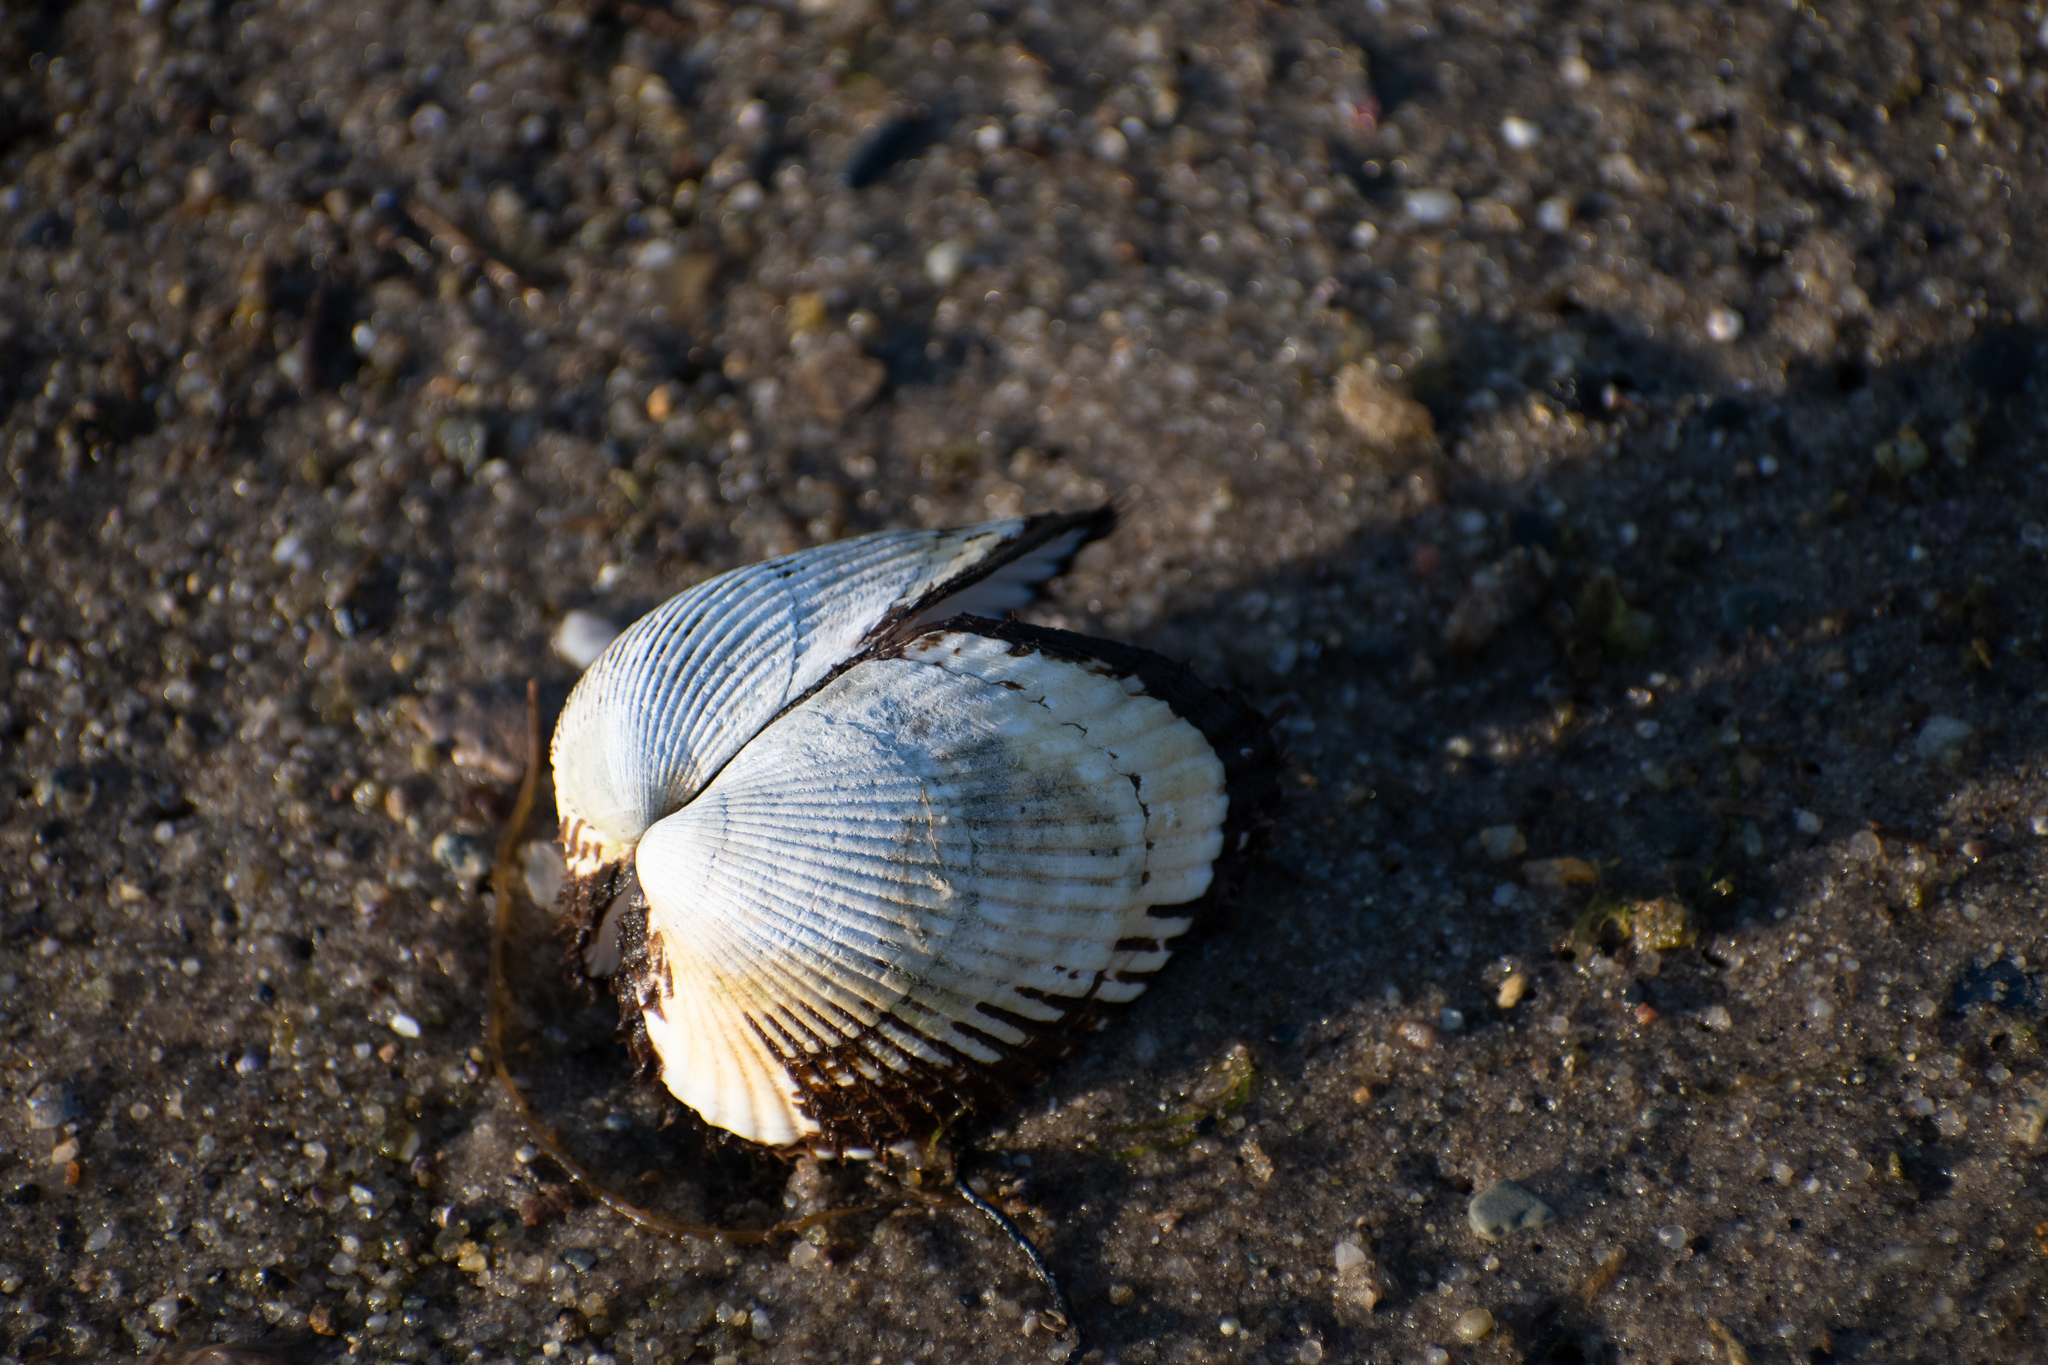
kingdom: Animalia
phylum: Mollusca
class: Bivalvia
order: Arcida
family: Arcidae
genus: Lunarca
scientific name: Lunarca ovalis
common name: Blood ark
